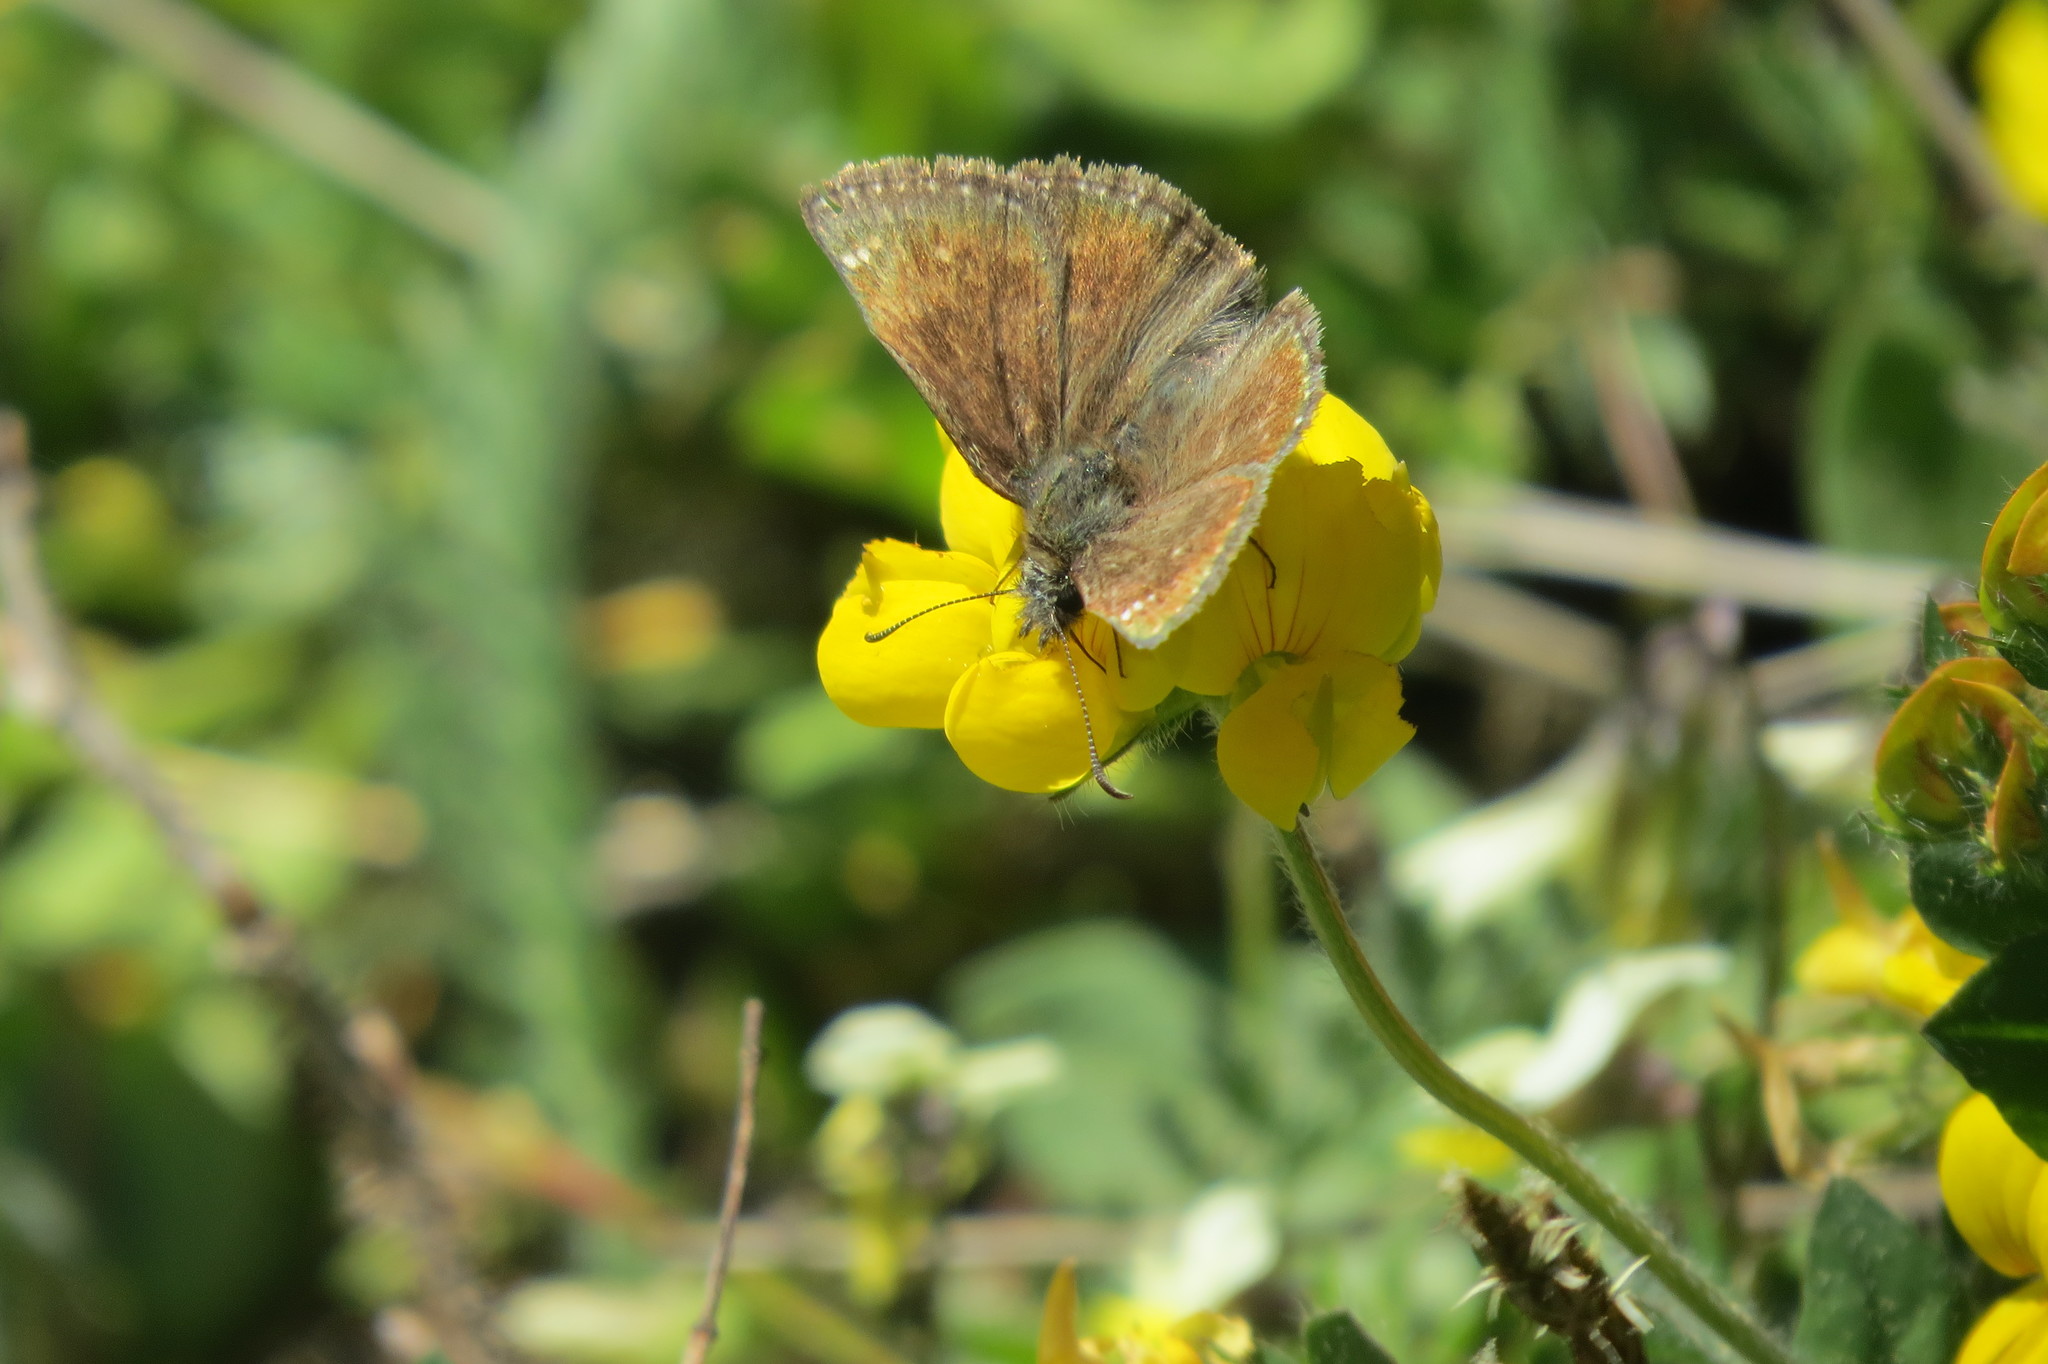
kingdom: Animalia
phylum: Arthropoda
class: Insecta
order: Lepidoptera
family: Hesperiidae
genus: Erynnis
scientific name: Erynnis tages
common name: Dingy skipper
